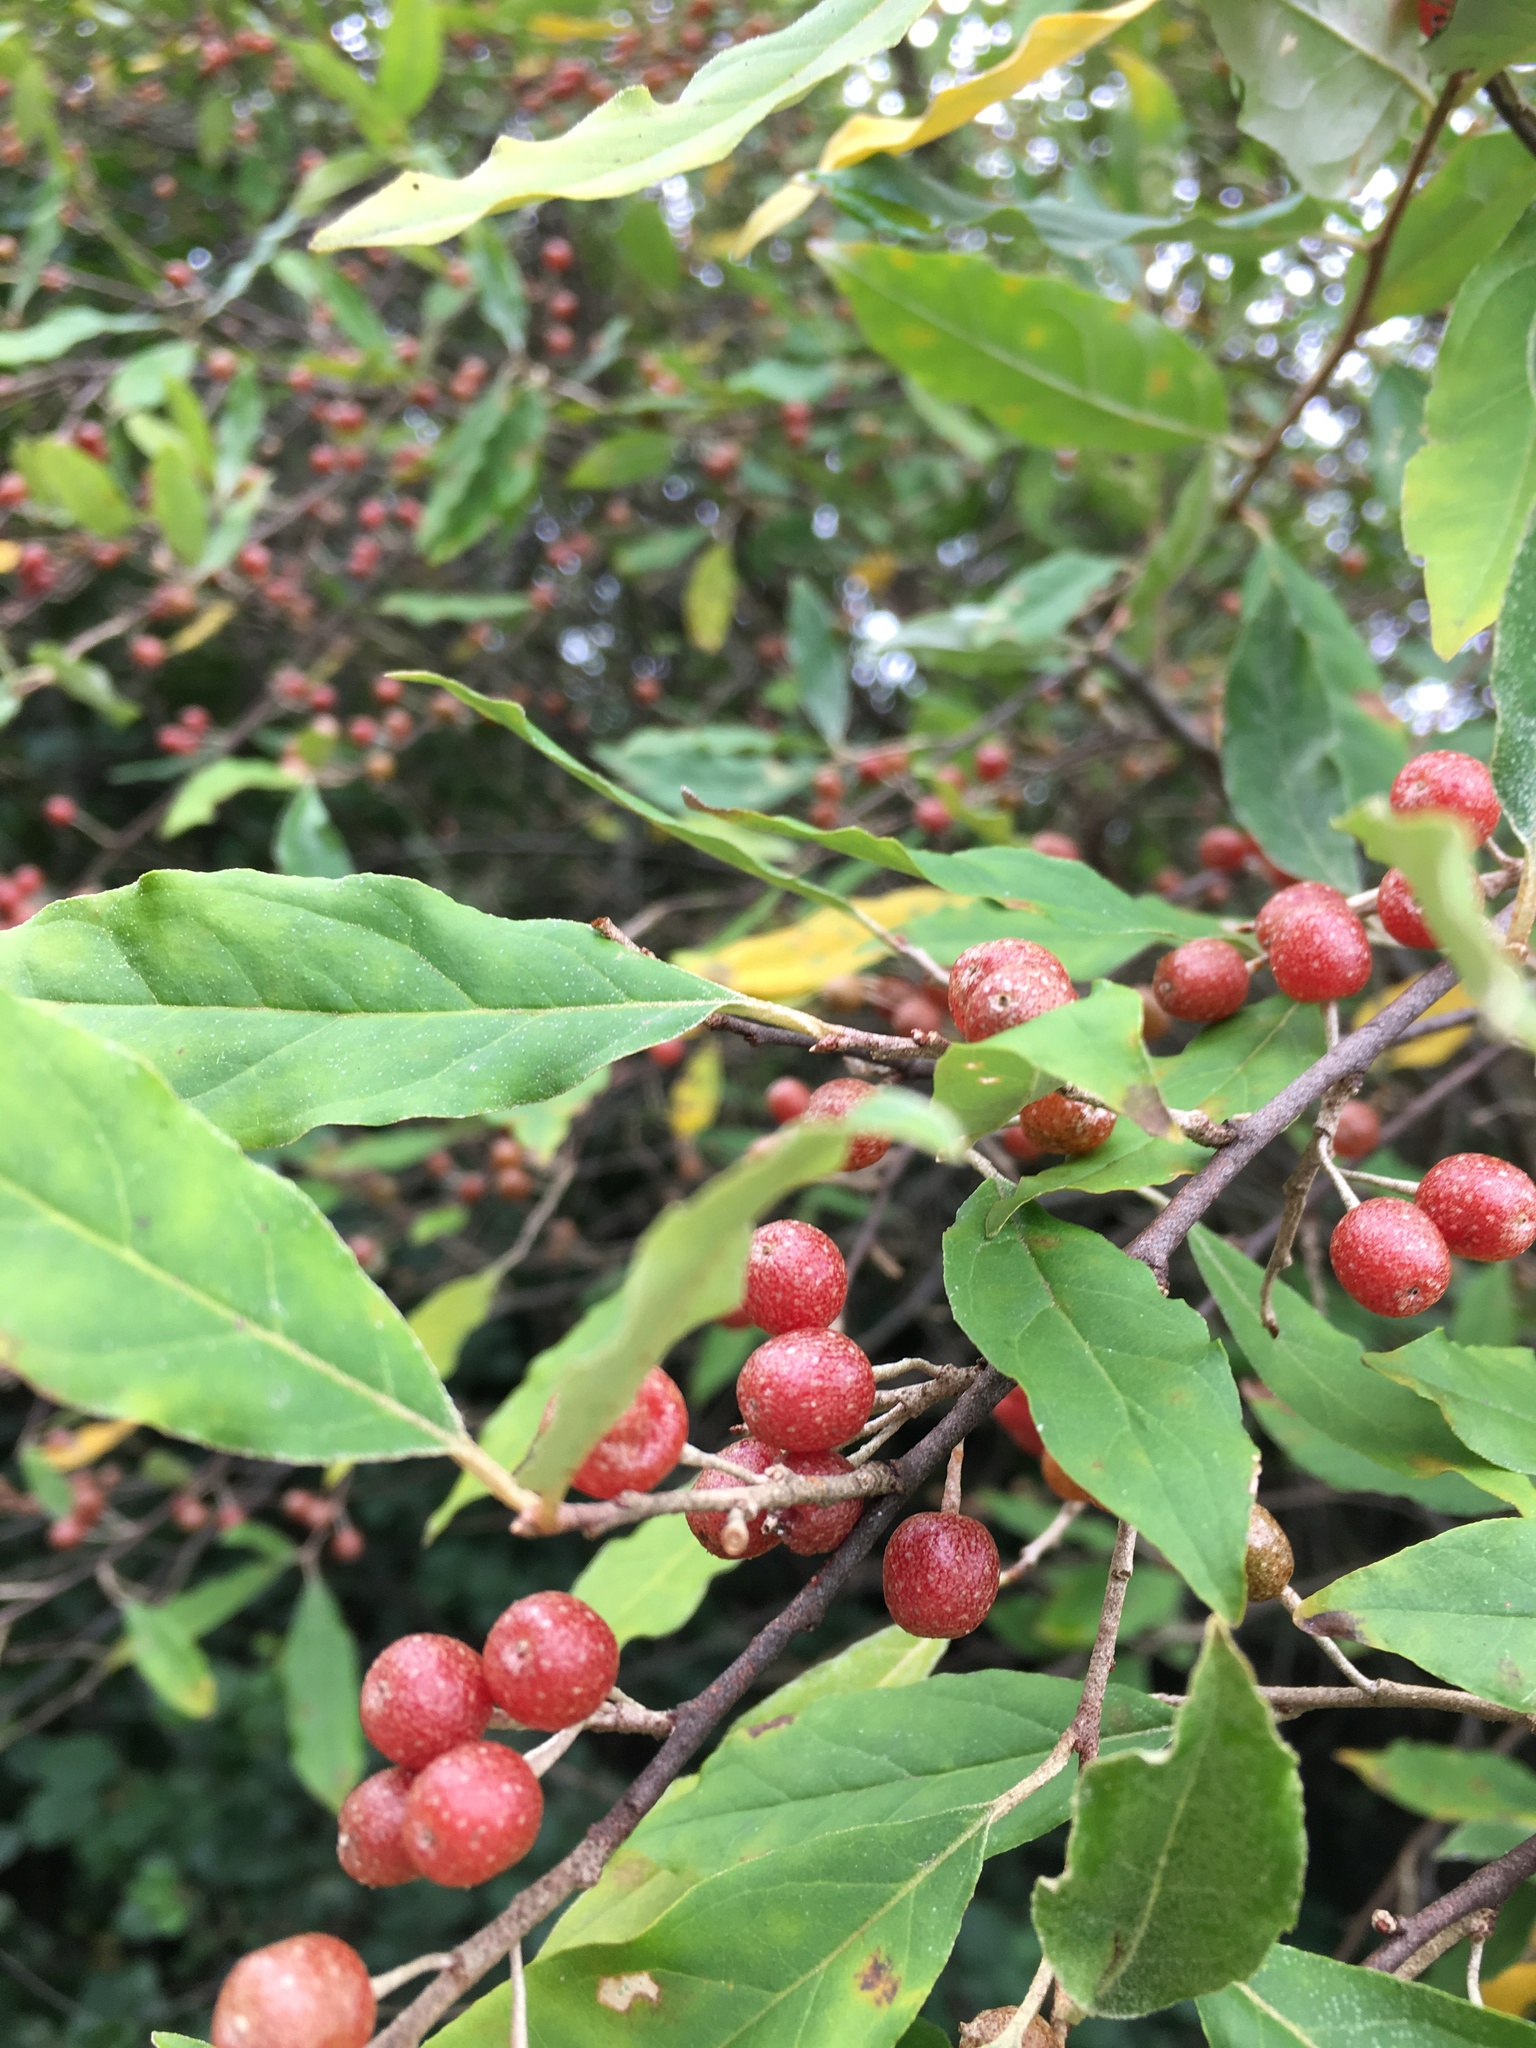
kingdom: Plantae
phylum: Tracheophyta
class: Magnoliopsida
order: Rosales
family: Elaeagnaceae
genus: Elaeagnus
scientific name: Elaeagnus umbellata
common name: Autumn olive
